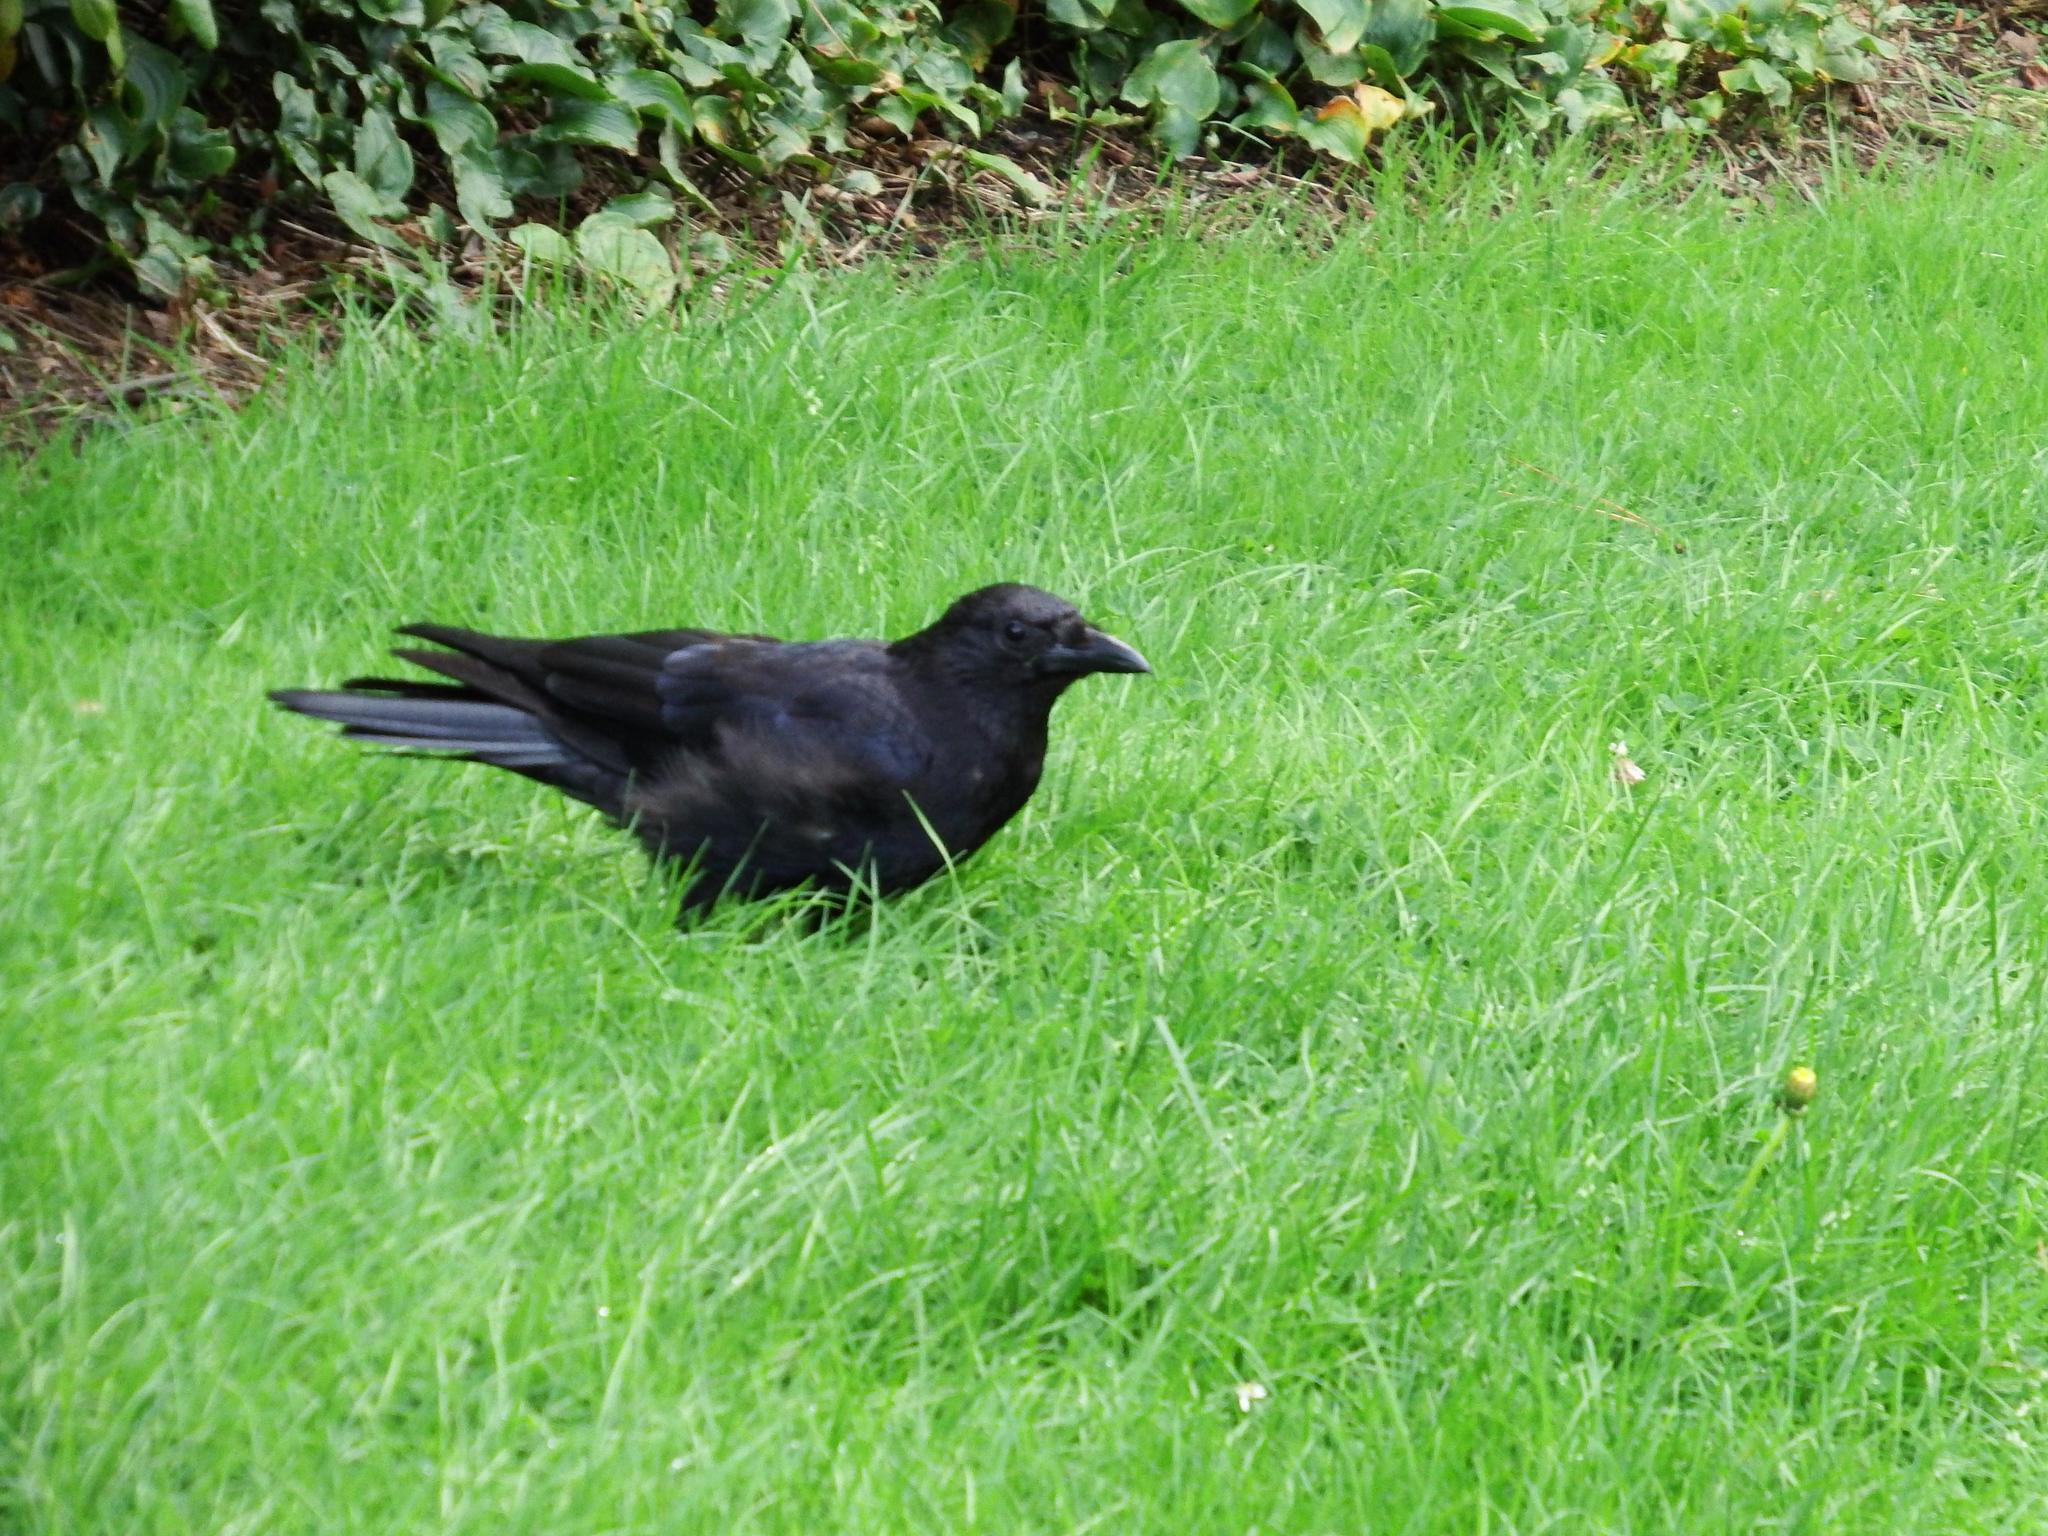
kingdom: Animalia
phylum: Chordata
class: Aves
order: Passeriformes
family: Corvidae
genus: Corvus
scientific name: Corvus corone
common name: Carrion crow
